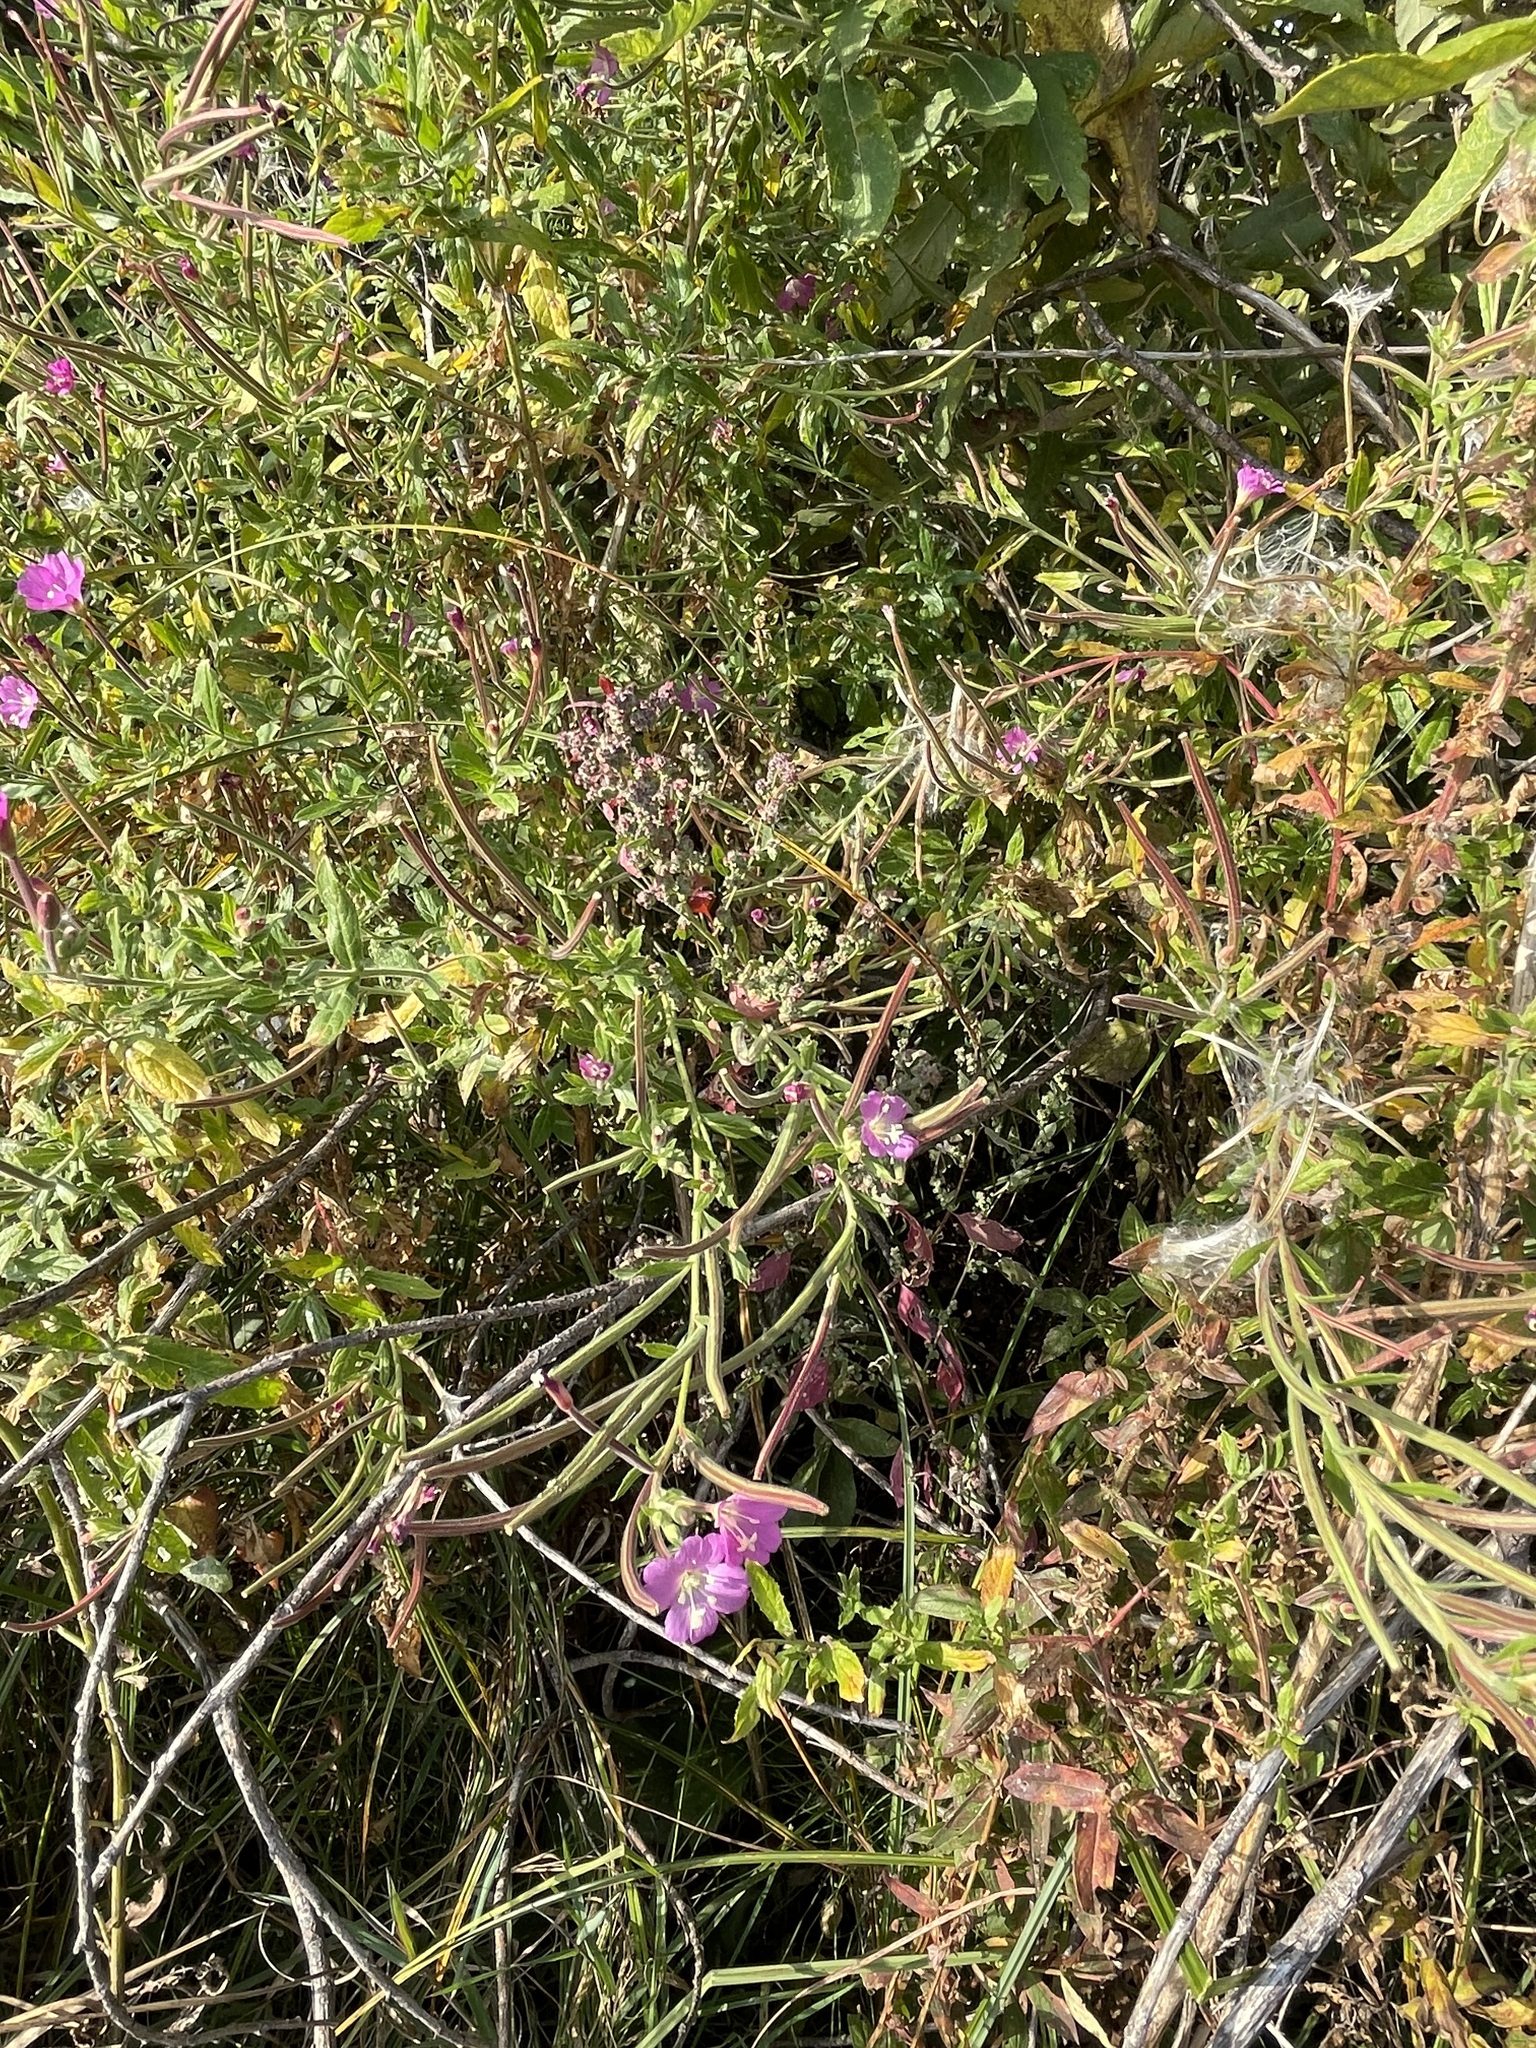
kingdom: Plantae
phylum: Tracheophyta
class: Magnoliopsida
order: Myrtales
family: Onagraceae
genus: Epilobium
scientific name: Epilobium hirsutum
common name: Great willowherb
